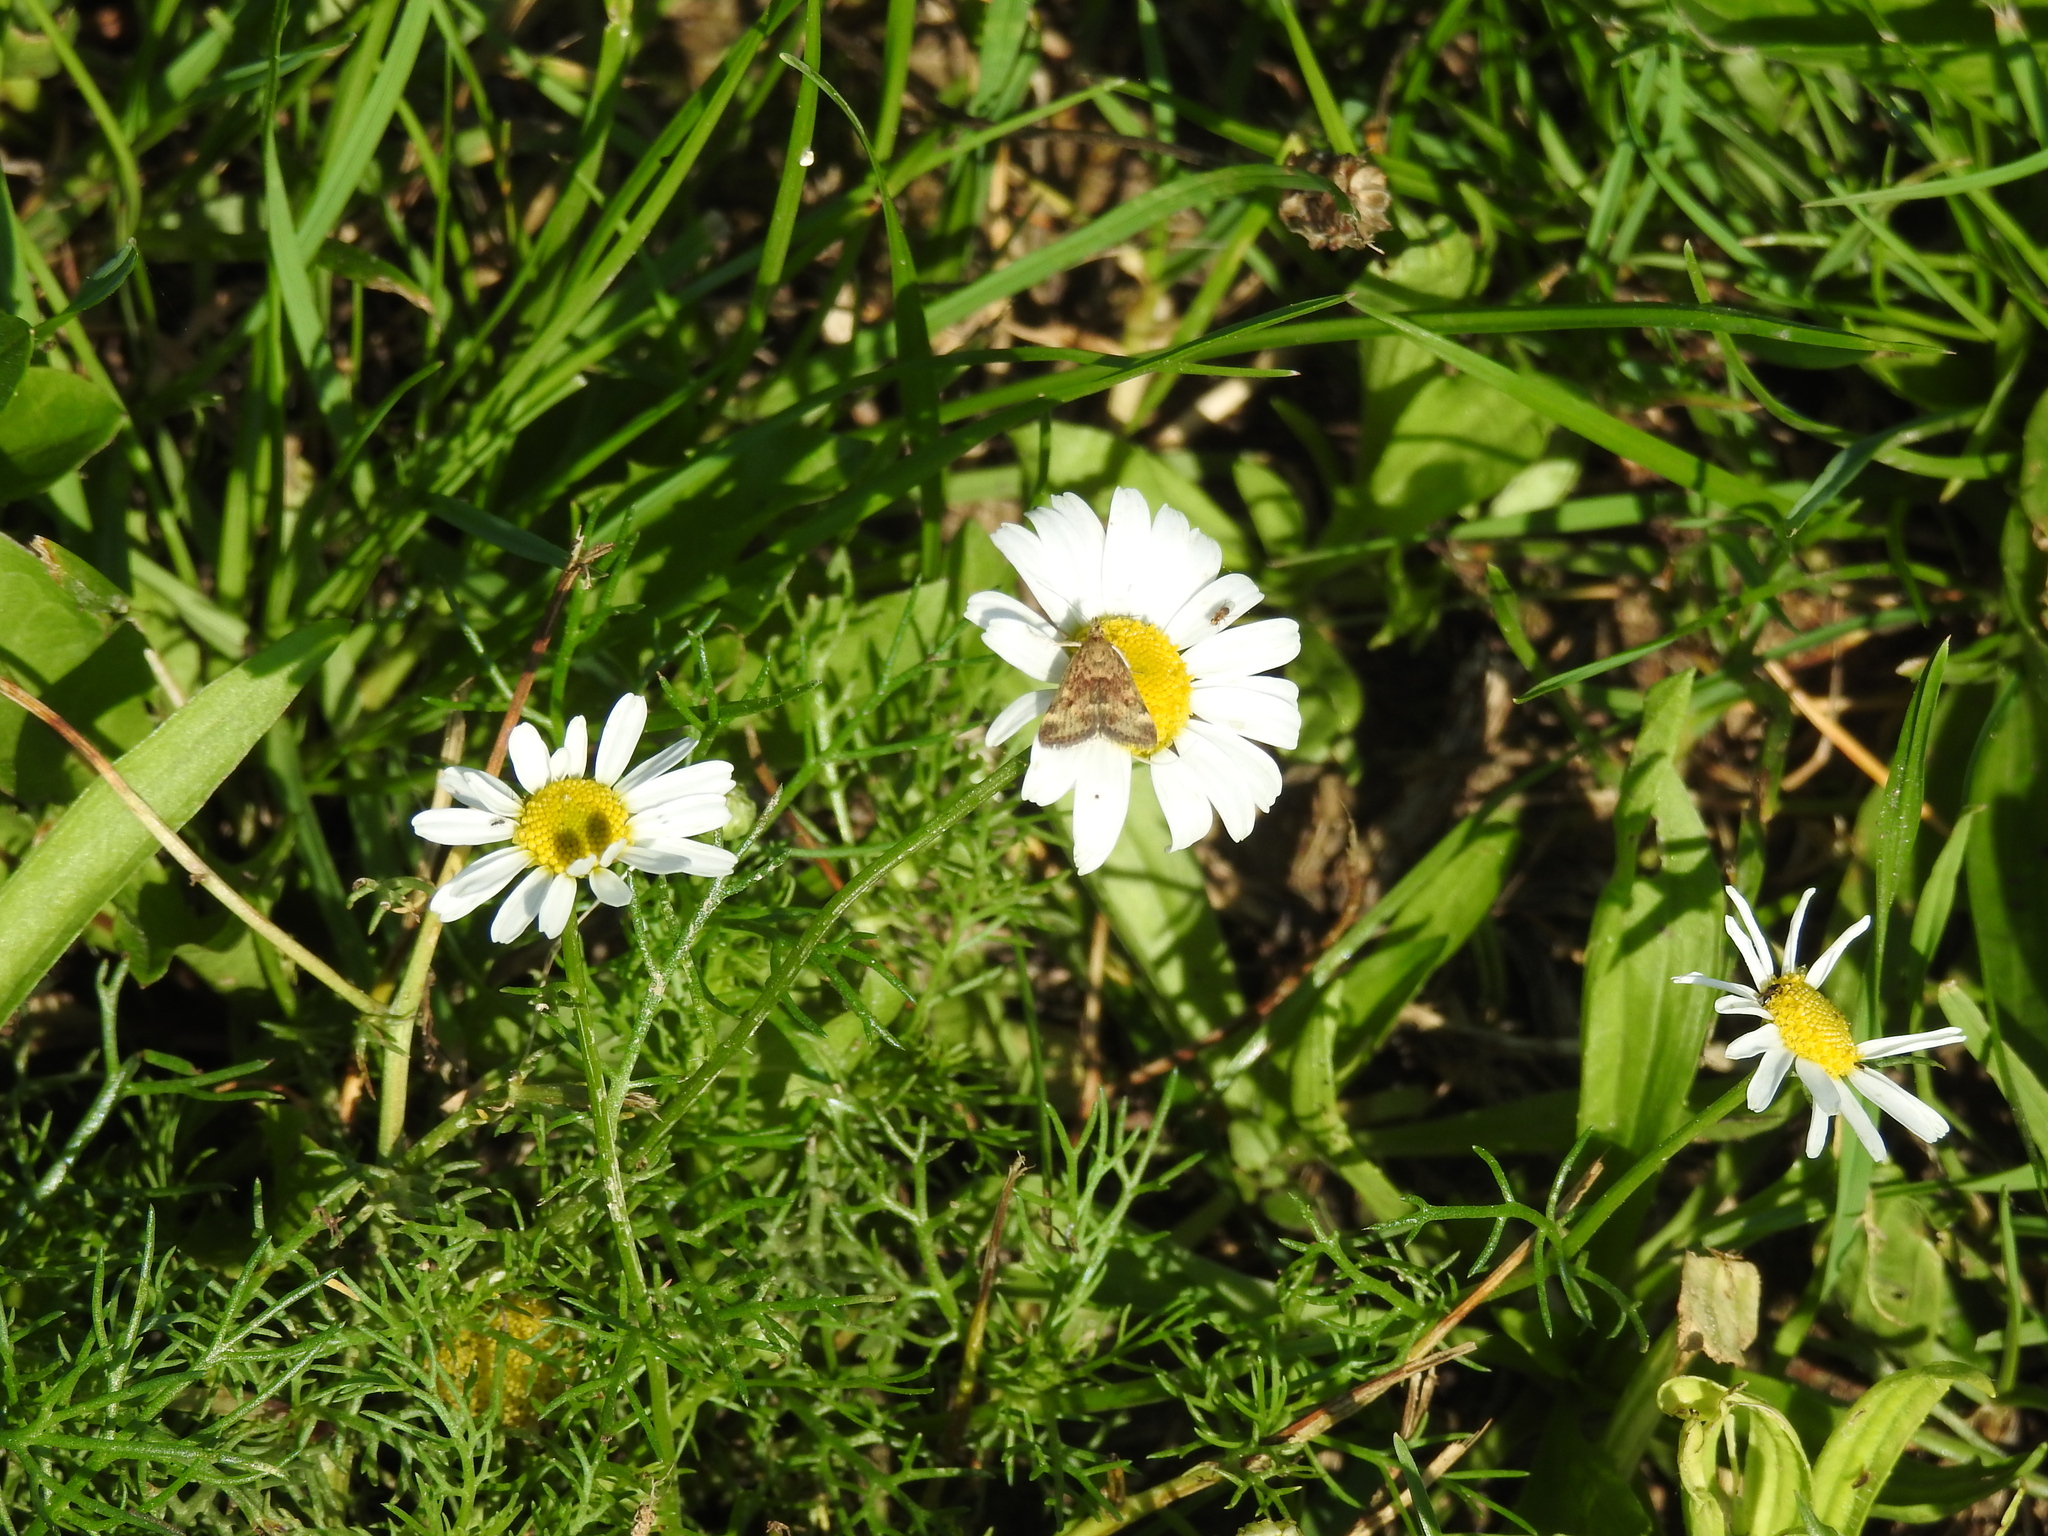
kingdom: Plantae
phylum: Tracheophyta
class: Magnoliopsida
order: Asterales
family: Asteraceae
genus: Tripleurospermum
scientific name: Tripleurospermum inodorum
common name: Scentless mayweed
